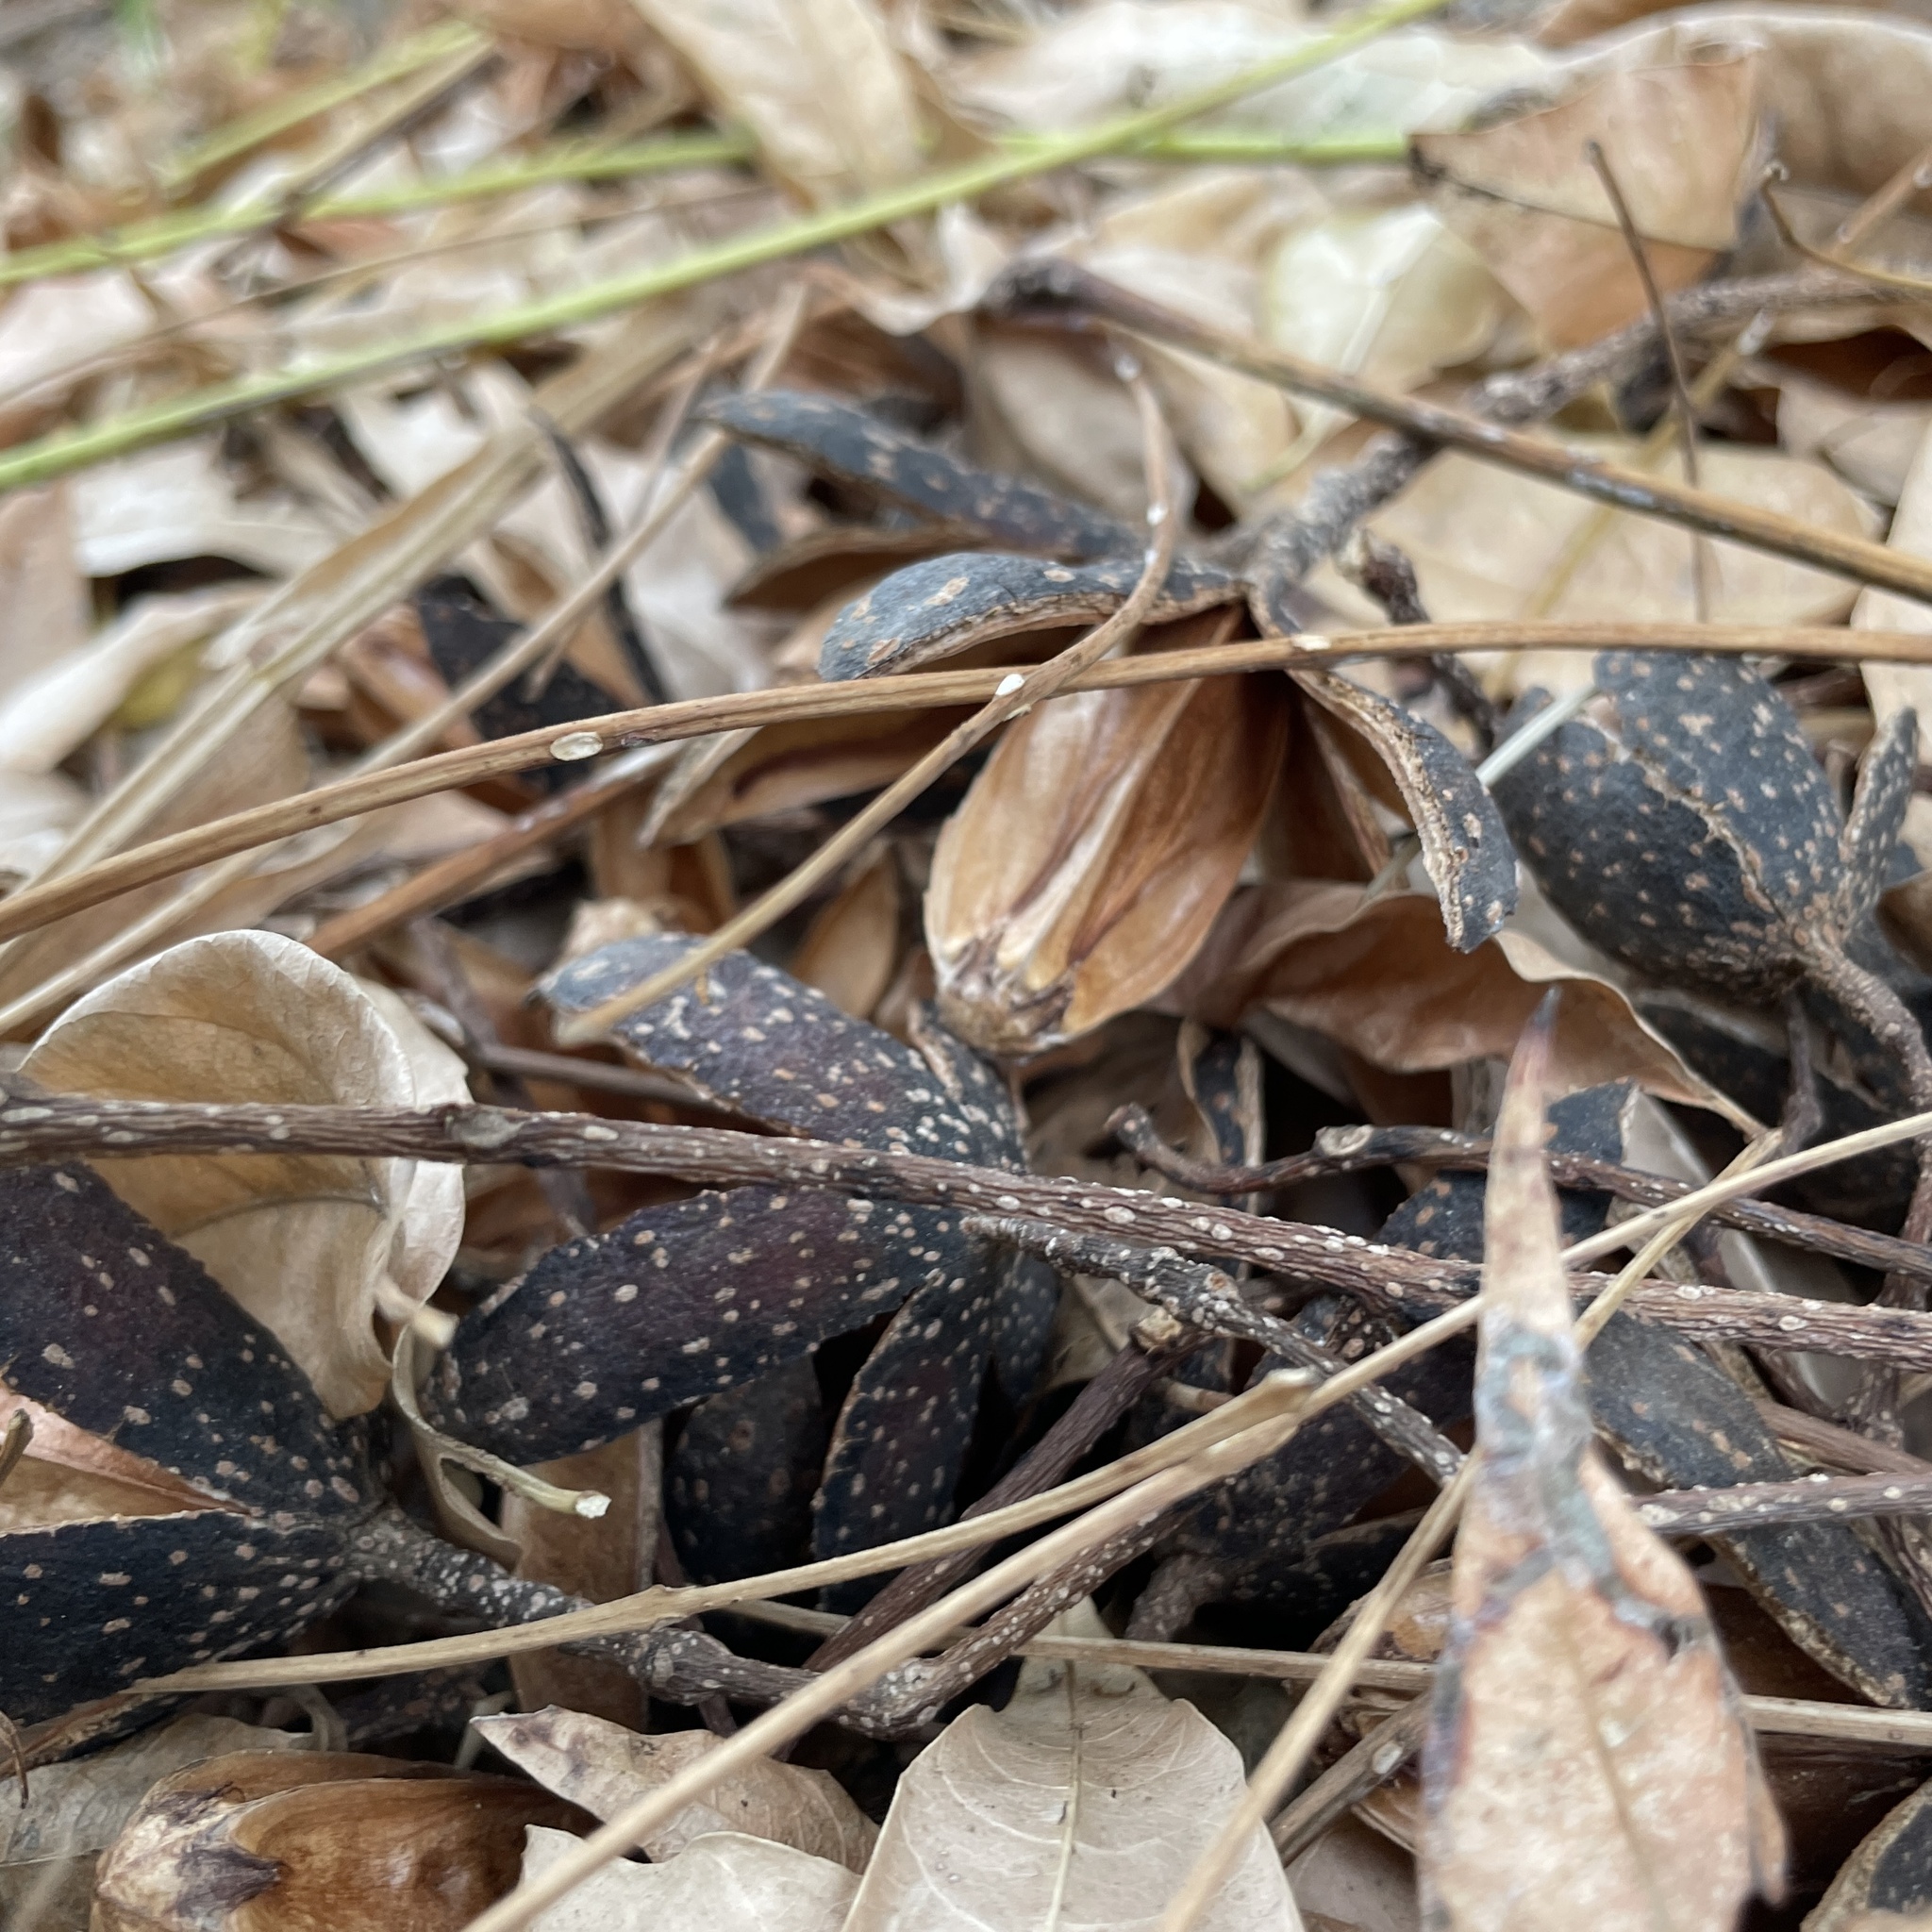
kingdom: Plantae
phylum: Tracheophyta
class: Magnoliopsida
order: Sapindales
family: Meliaceae
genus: Cedrela
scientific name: Cedrela odorata
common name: Red cedar
